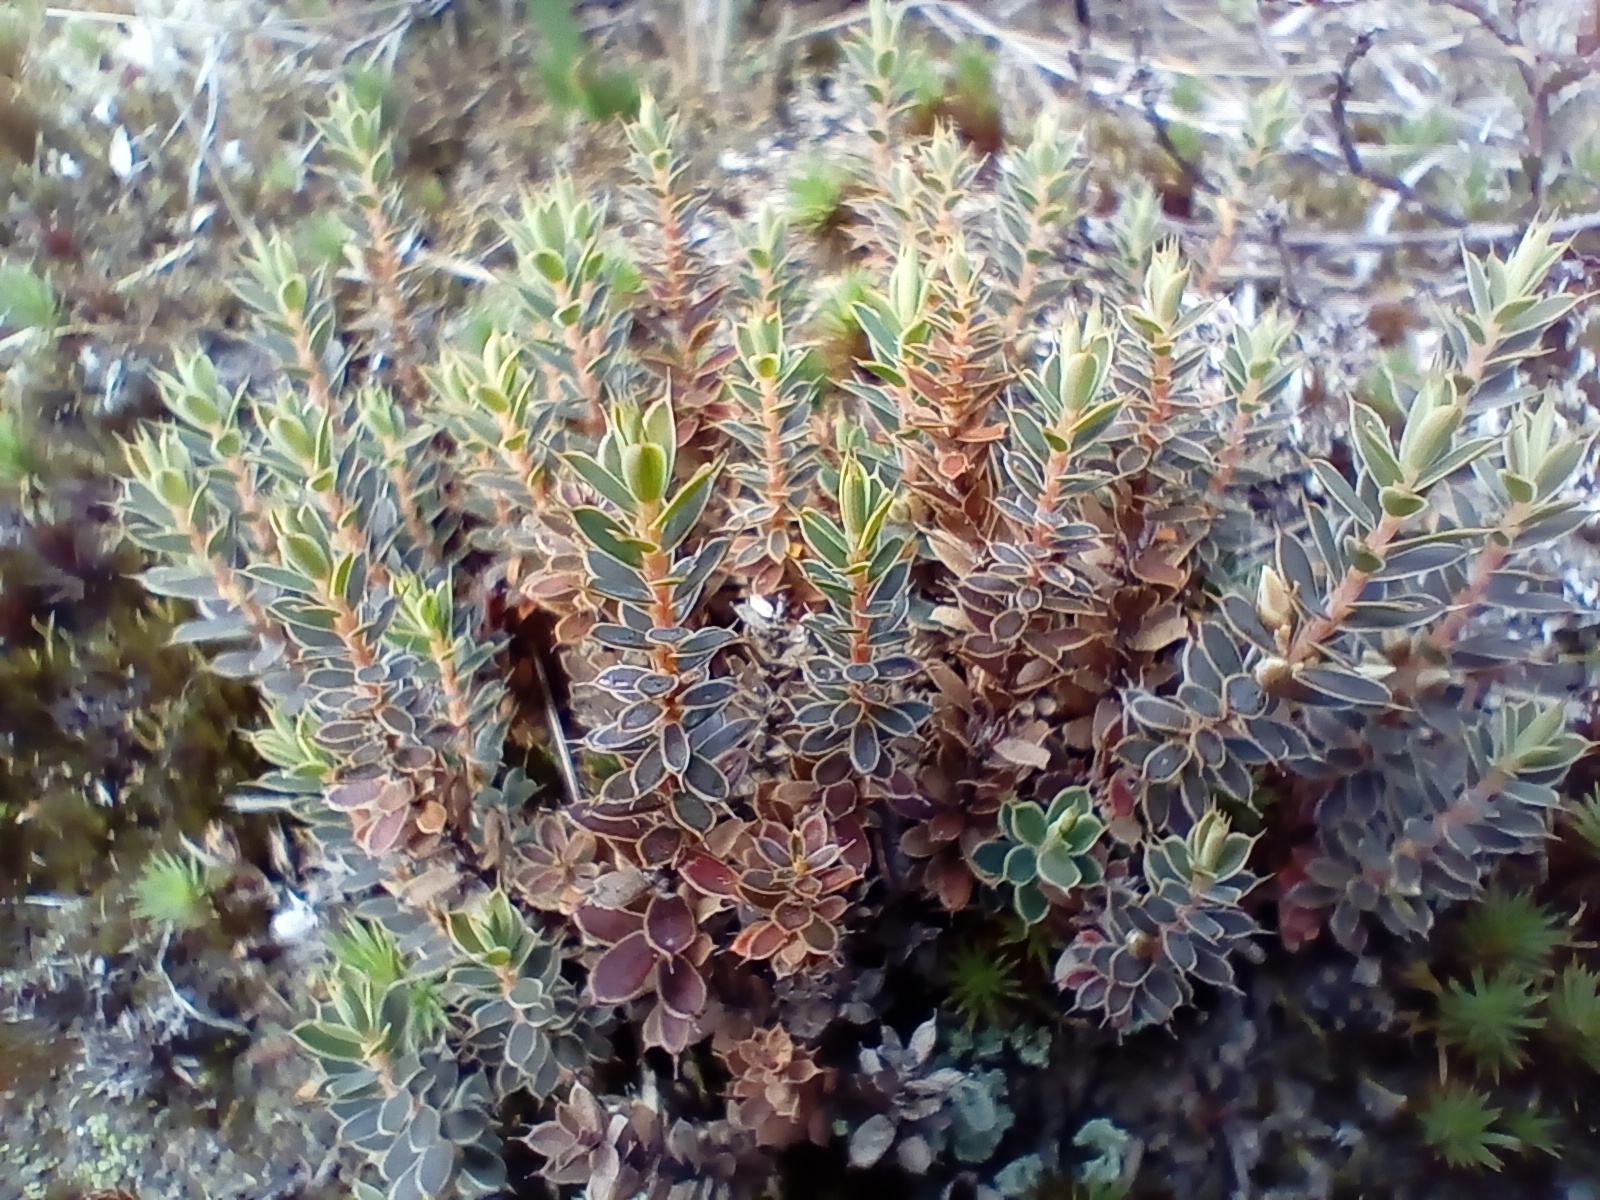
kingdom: Plantae
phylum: Tracheophyta
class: Magnoliopsida
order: Ericales
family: Ericaceae
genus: Styphelia
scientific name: Styphelia nesophila
